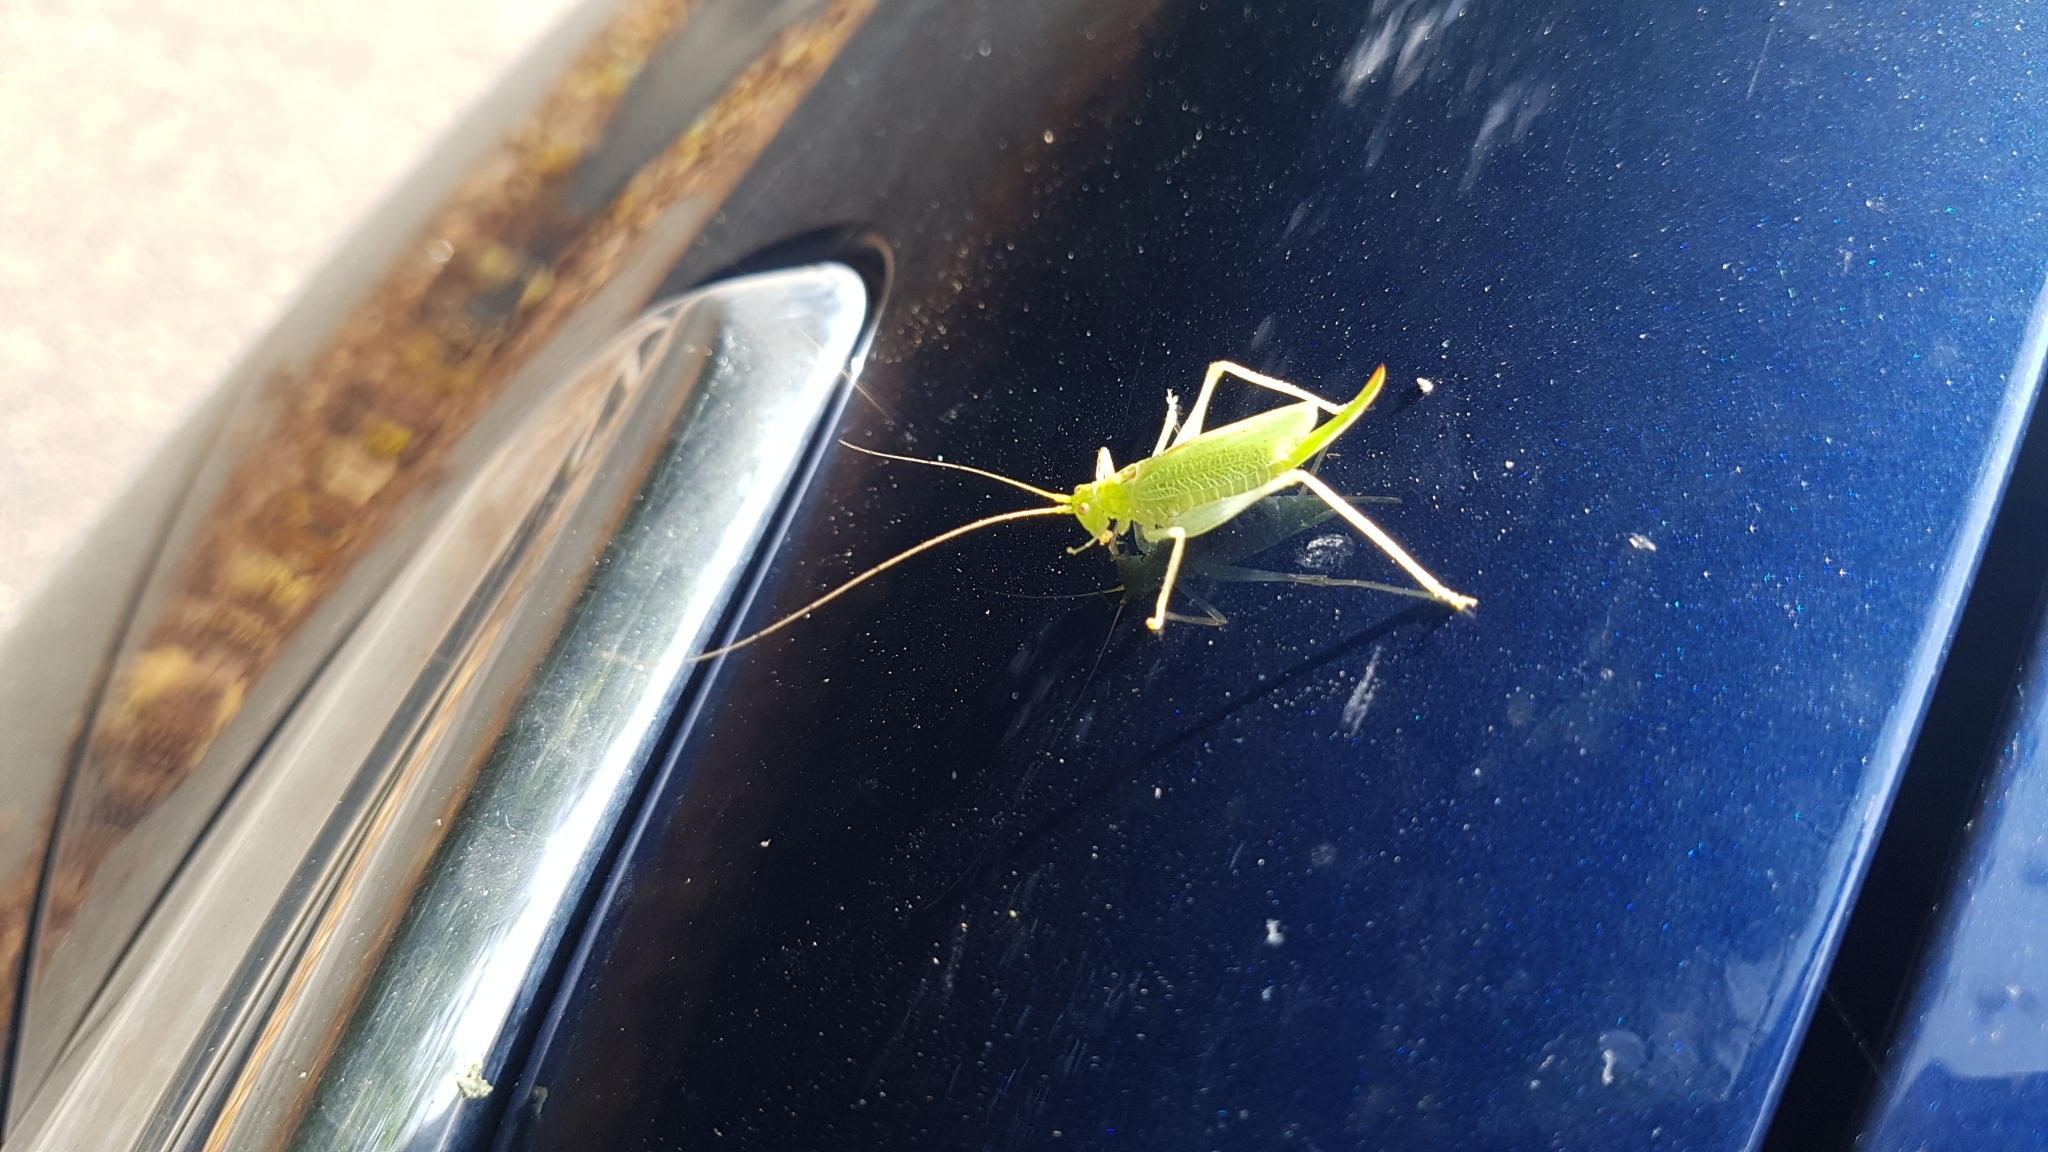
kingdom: Animalia
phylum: Arthropoda
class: Insecta
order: Orthoptera
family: Tettigoniidae
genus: Meconema
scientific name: Meconema thalassinum
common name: Oak bush-cricket
